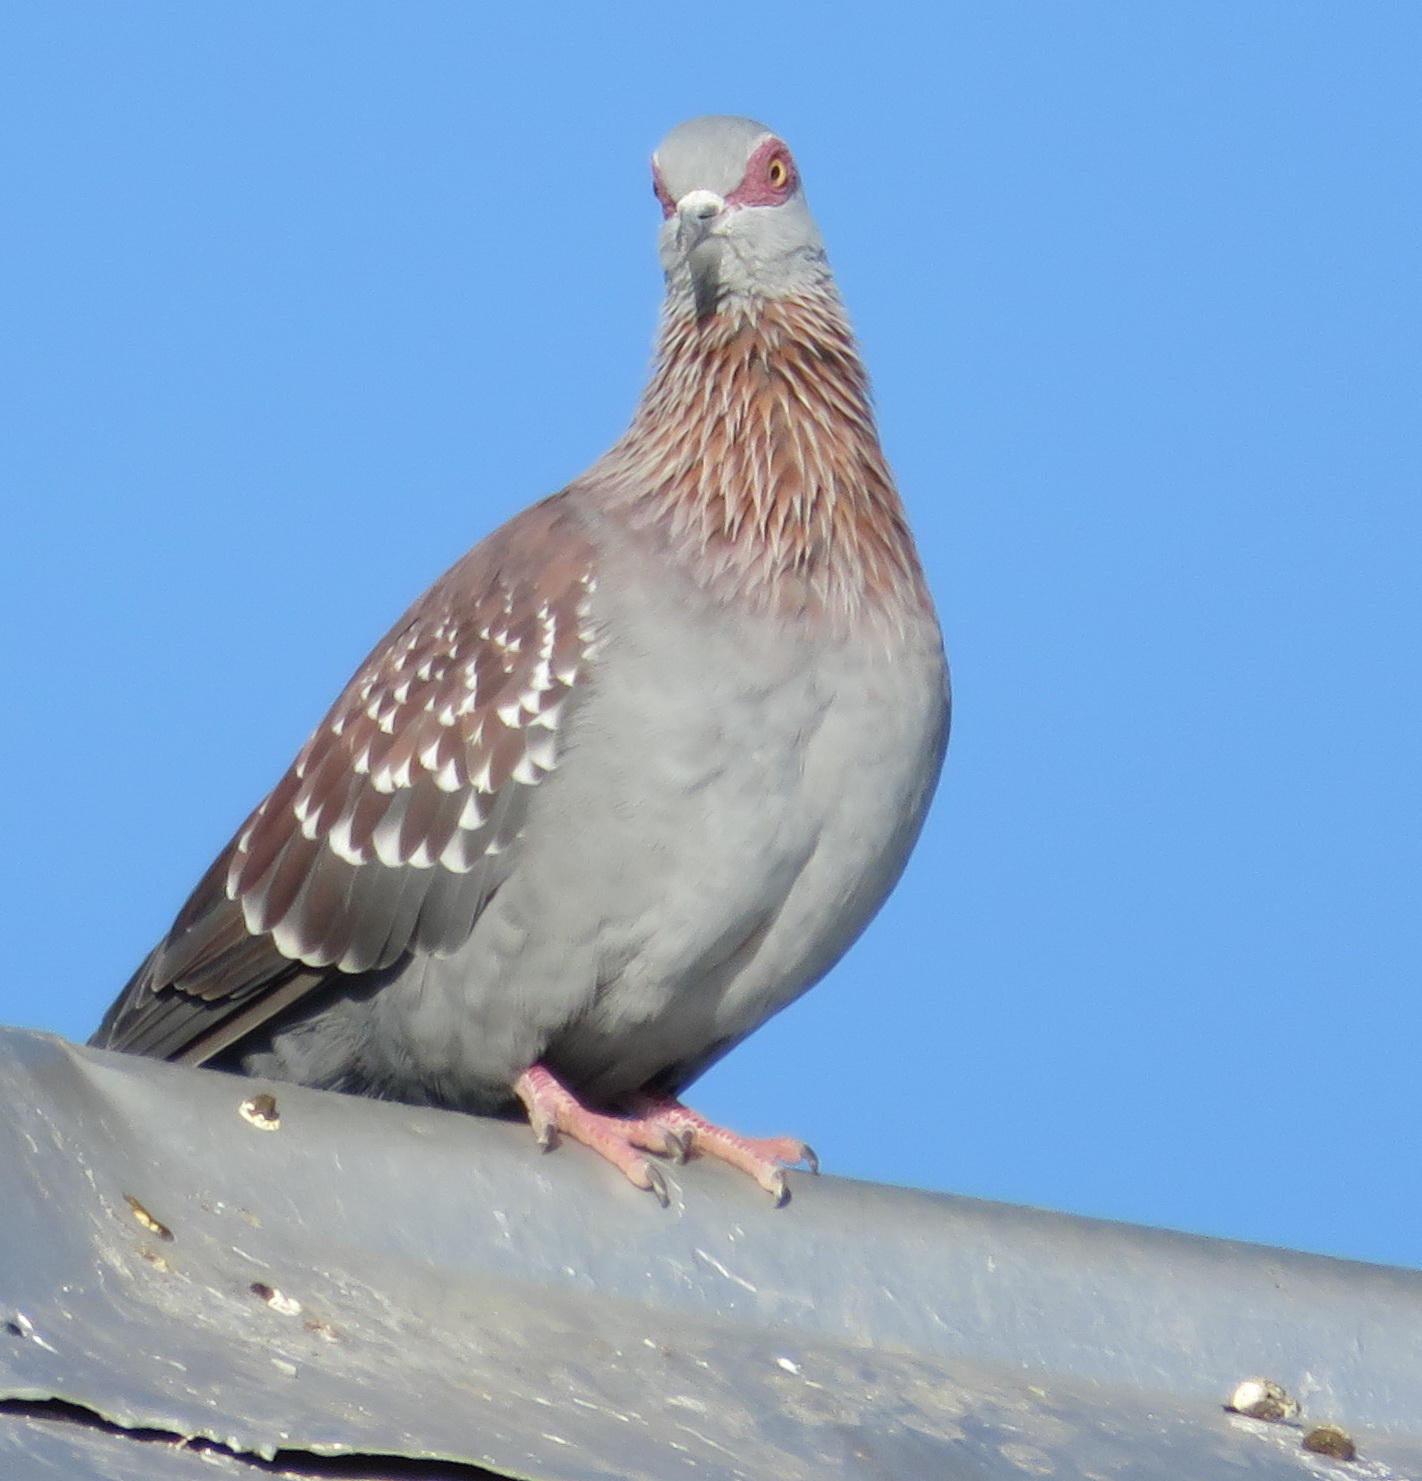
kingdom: Animalia
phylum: Chordata
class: Aves
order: Columbiformes
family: Columbidae
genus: Columba
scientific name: Columba guinea
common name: Speckled pigeon
